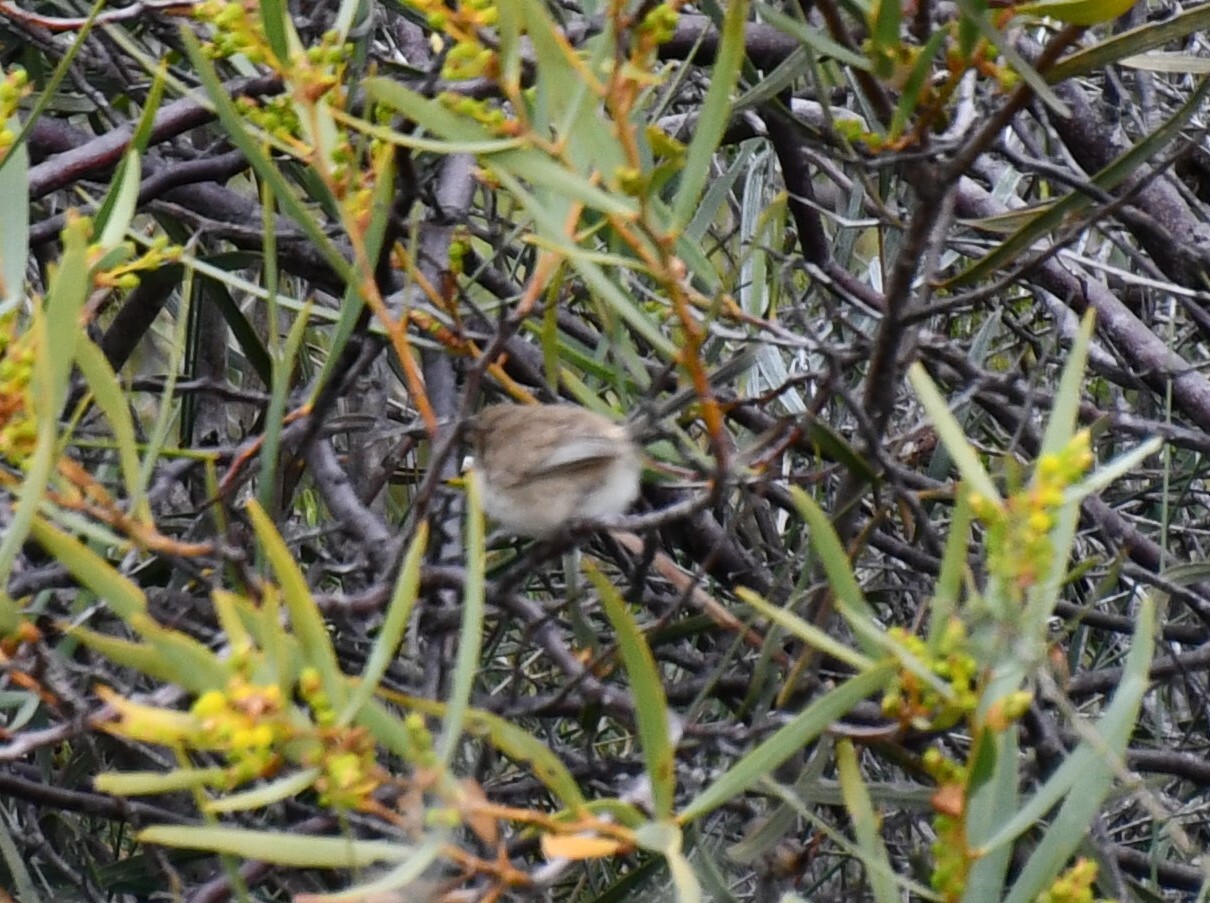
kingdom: Animalia
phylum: Chordata
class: Aves
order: Passeriformes
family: Maluridae
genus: Malurus
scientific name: Malurus leucopterus
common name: White-winged fairywren
